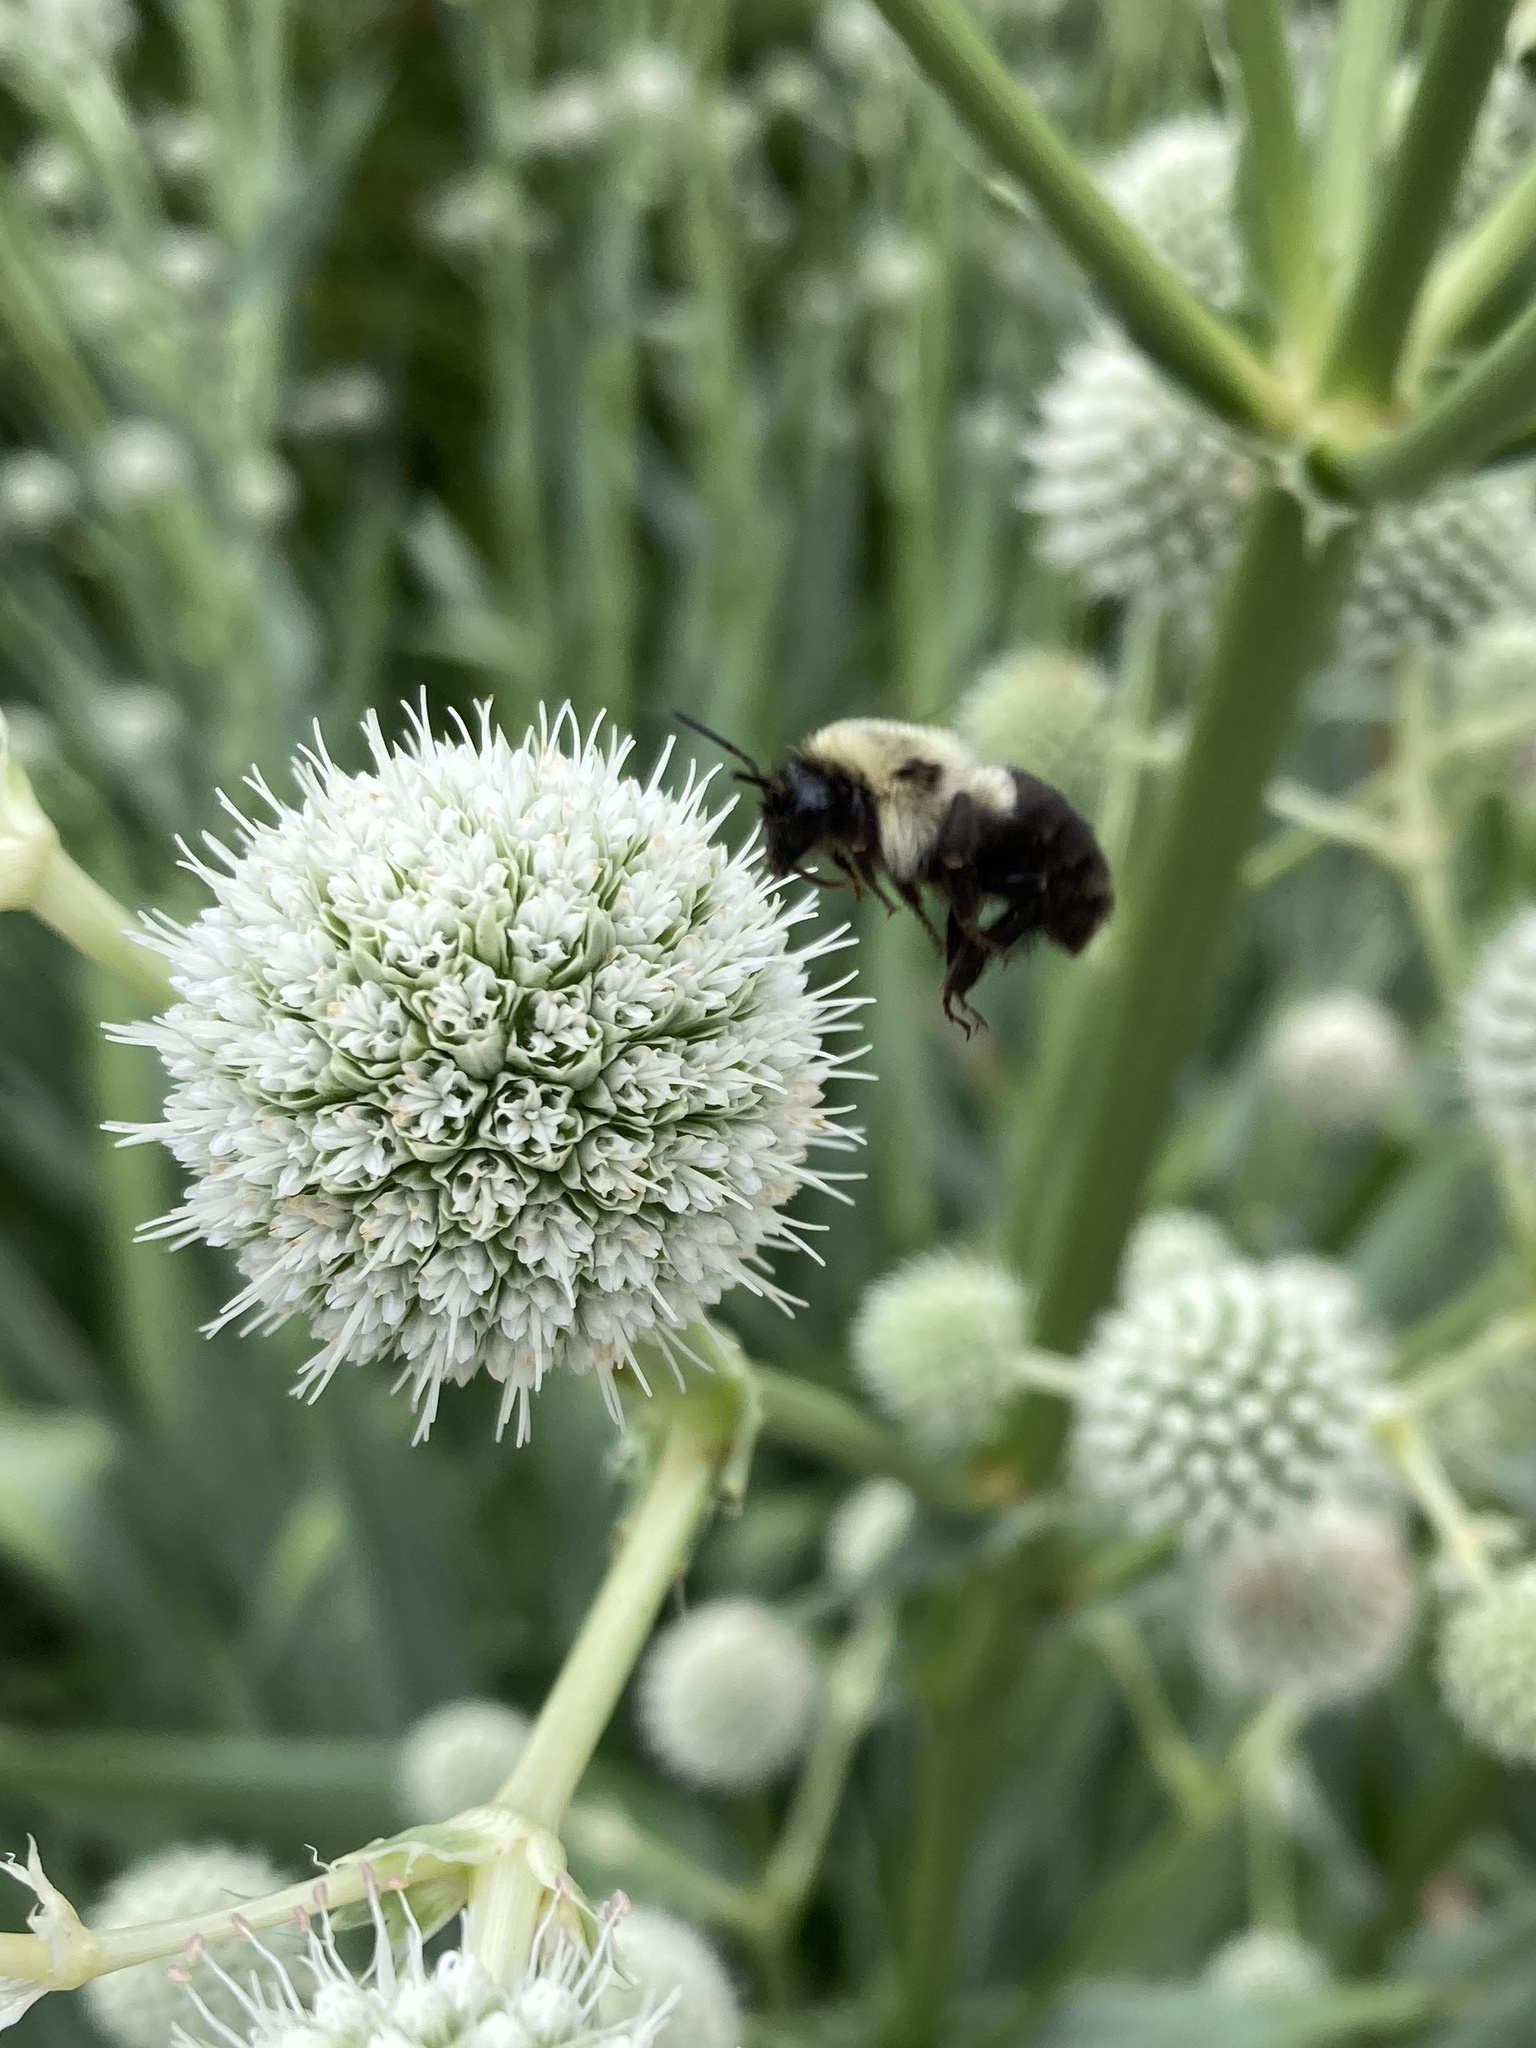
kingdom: Animalia
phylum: Arthropoda
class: Insecta
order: Hymenoptera
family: Apidae
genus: Bombus
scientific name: Bombus impatiens
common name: Common eastern bumble bee
